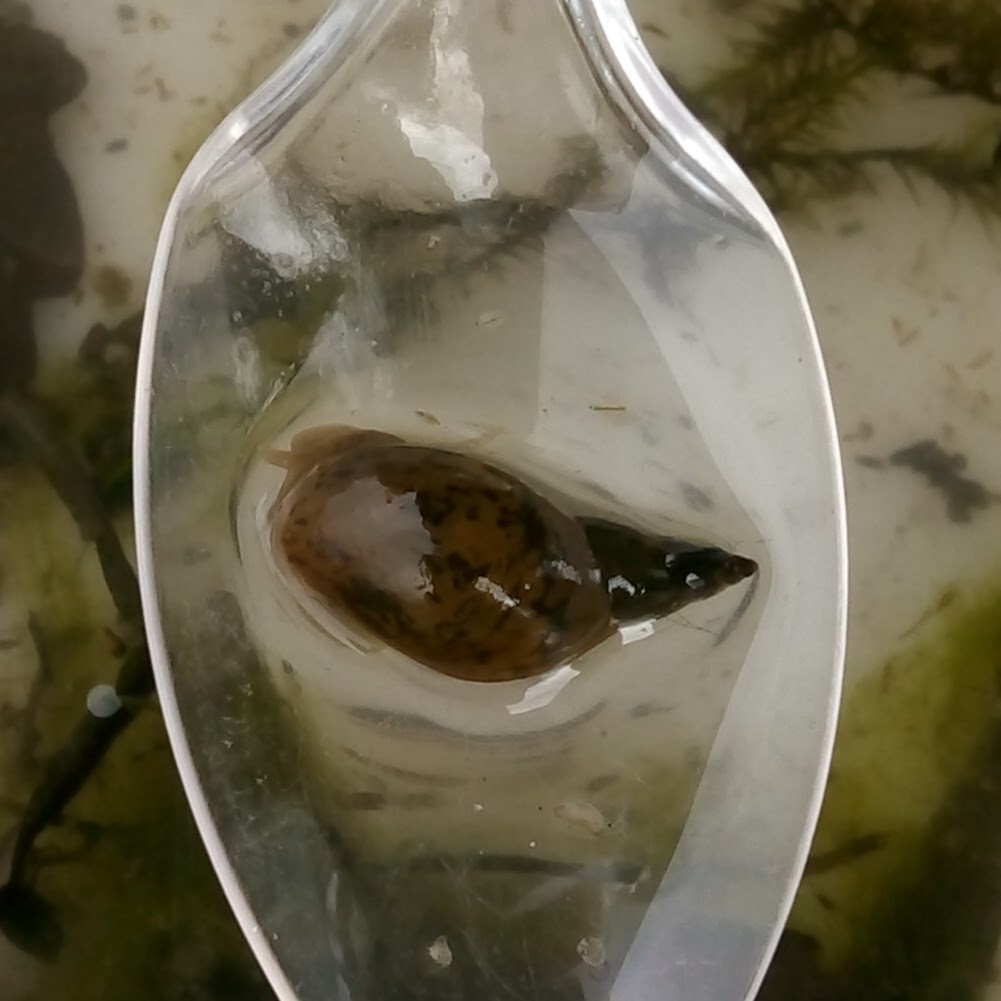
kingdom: Animalia
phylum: Mollusca
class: Gastropoda
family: Lymnaeidae
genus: Lymnaea
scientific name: Lymnaea stagnalis
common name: Great pond snail
